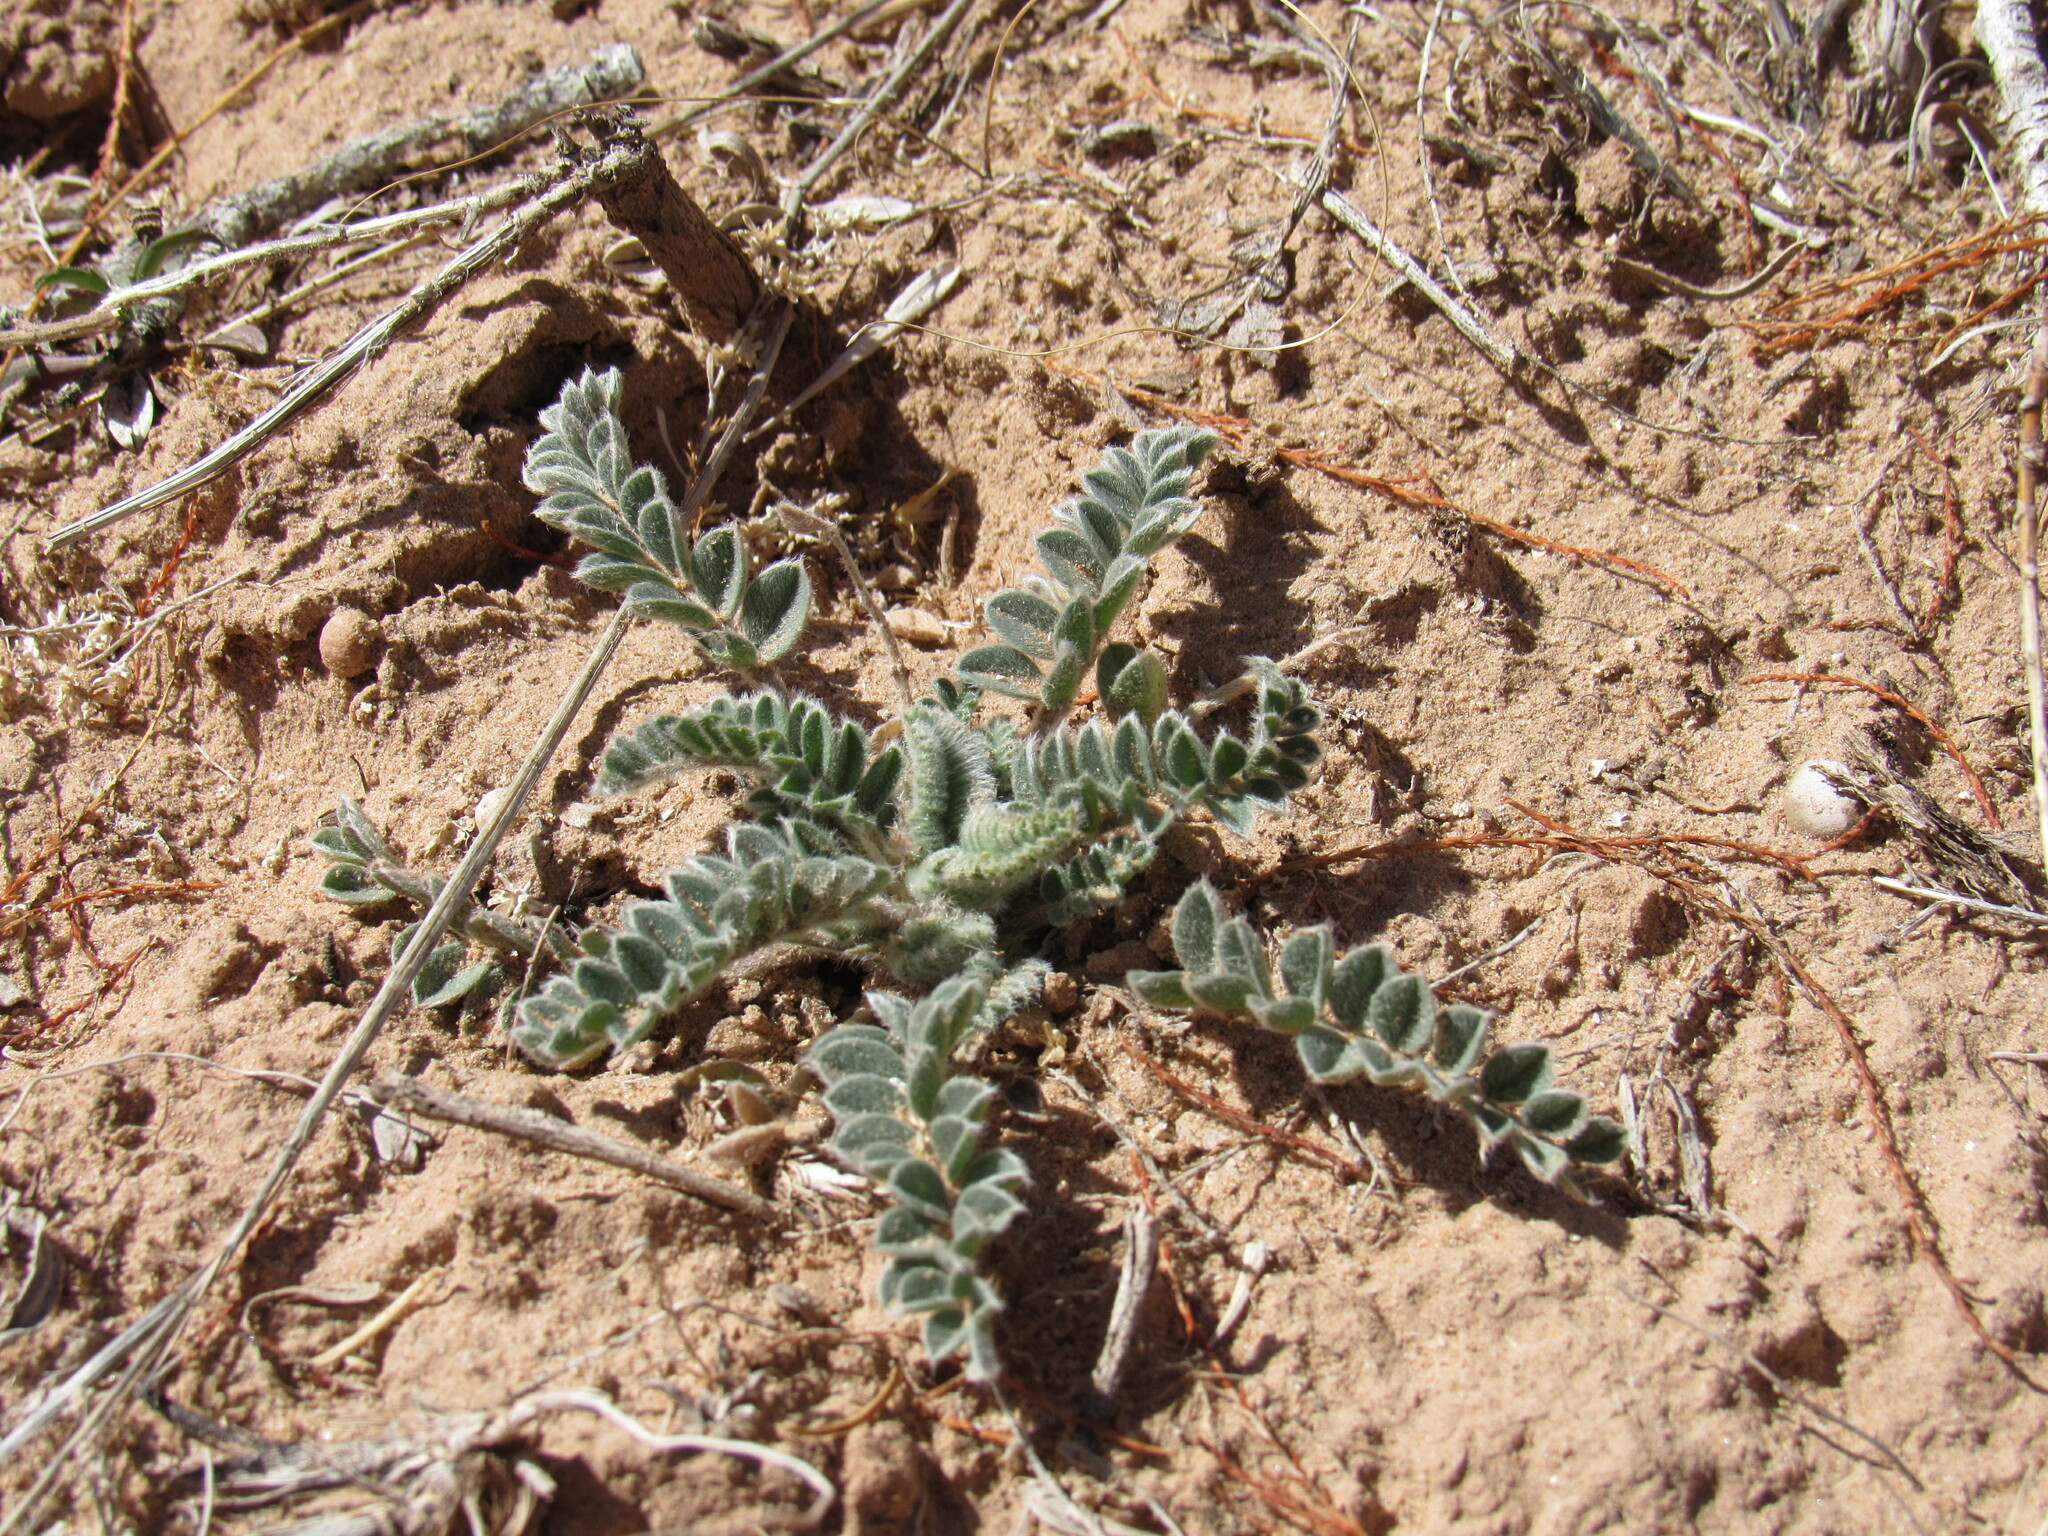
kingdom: Plantae
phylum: Tracheophyta
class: Magnoliopsida
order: Fabales
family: Fabaceae
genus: Astragalus
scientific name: Astragalus mollissimus
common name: Woolly locoweed
